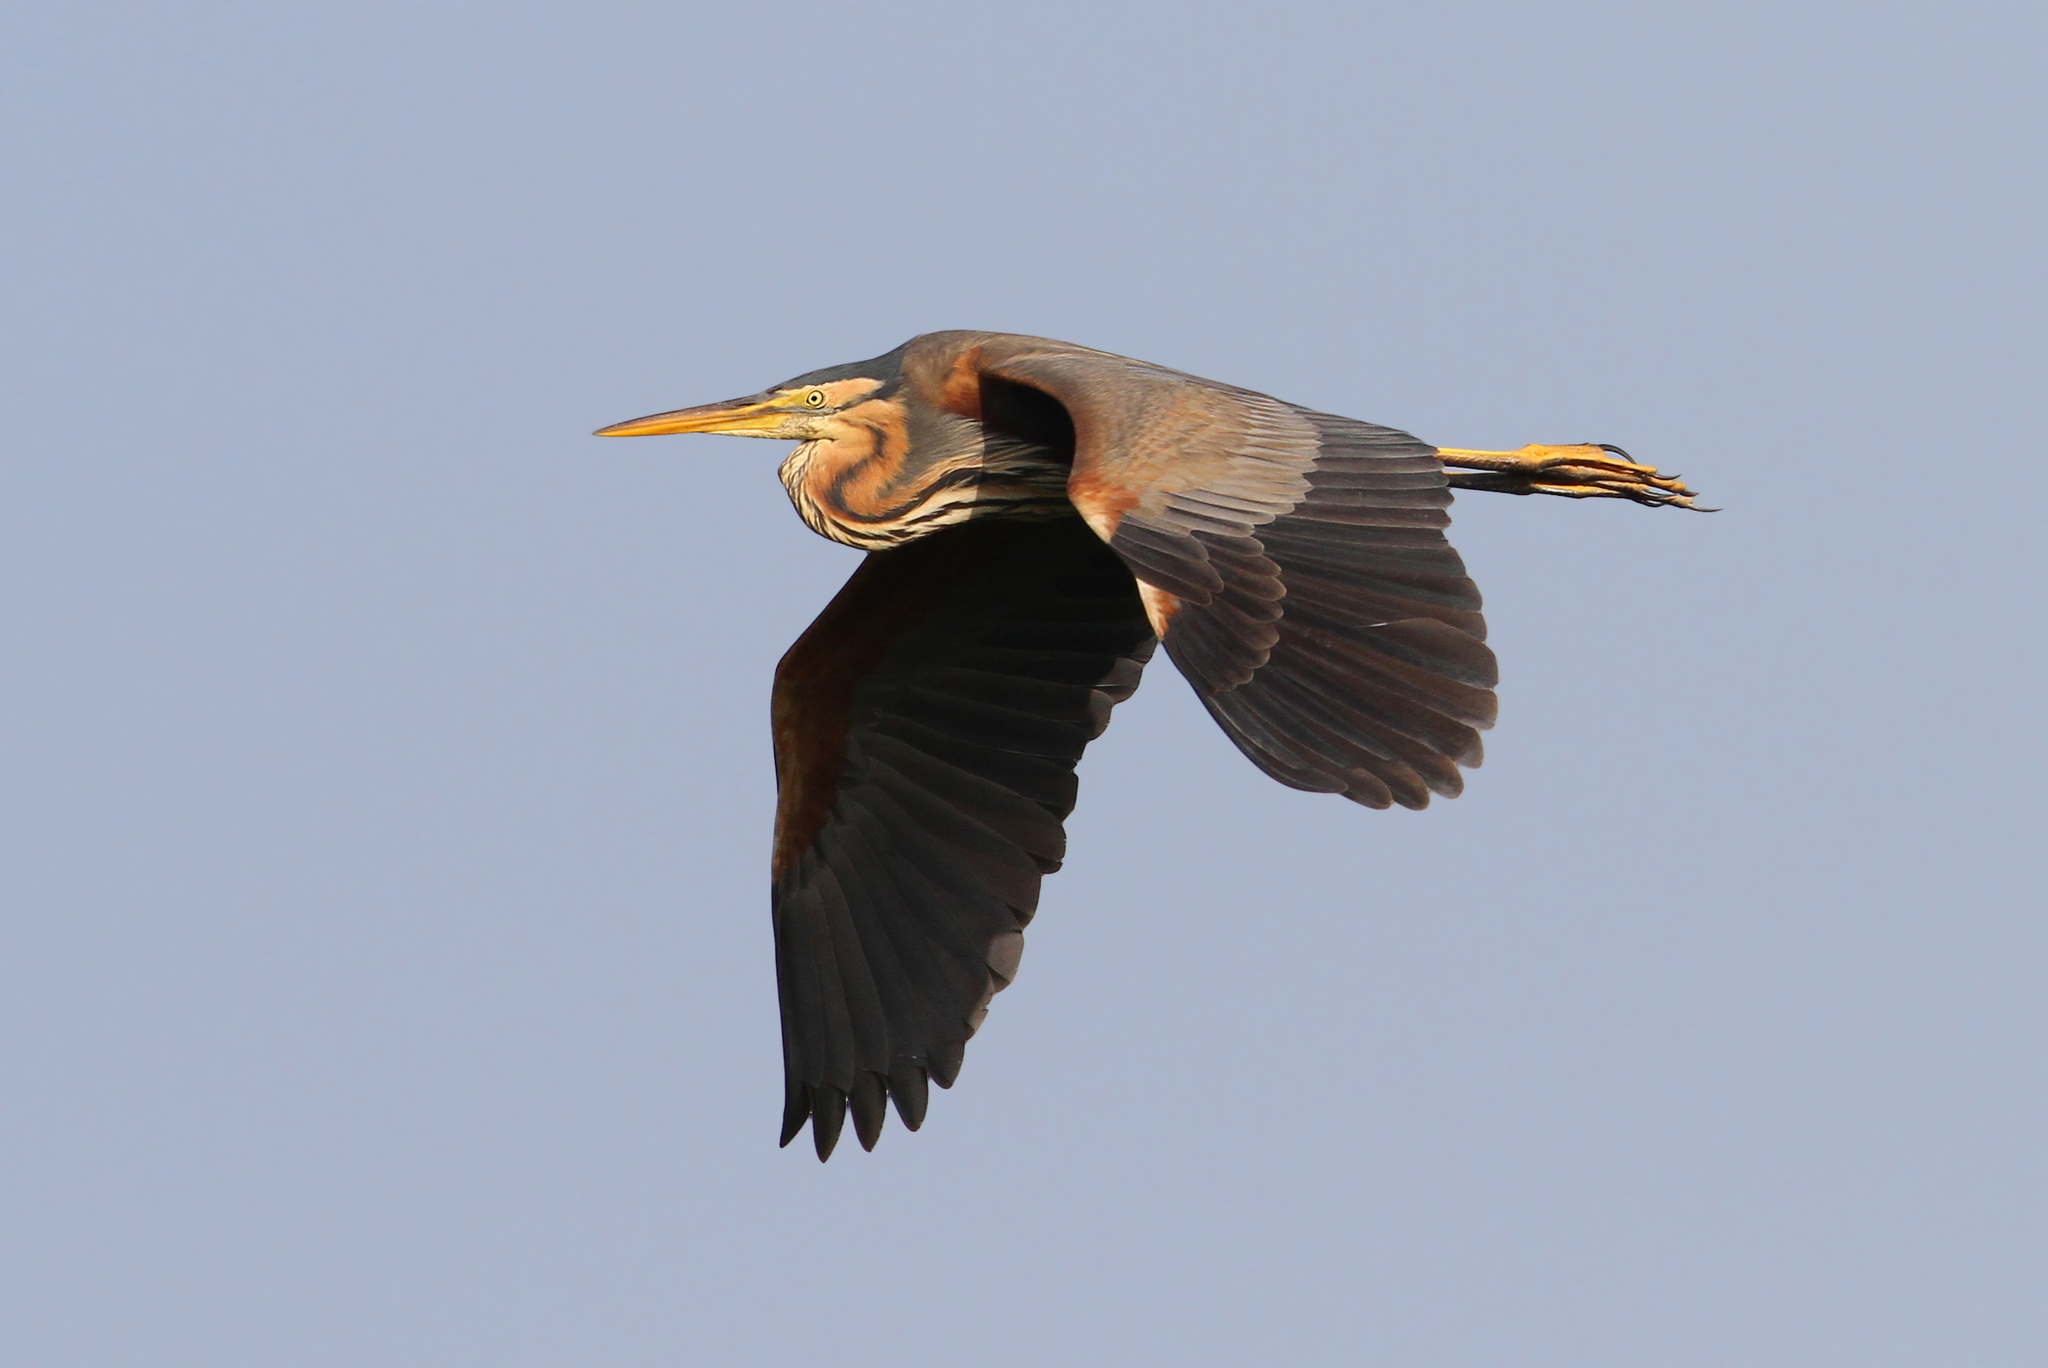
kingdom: Animalia
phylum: Chordata
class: Aves
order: Pelecaniformes
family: Ardeidae
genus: Ardea
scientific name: Ardea purpurea
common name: Purple heron
